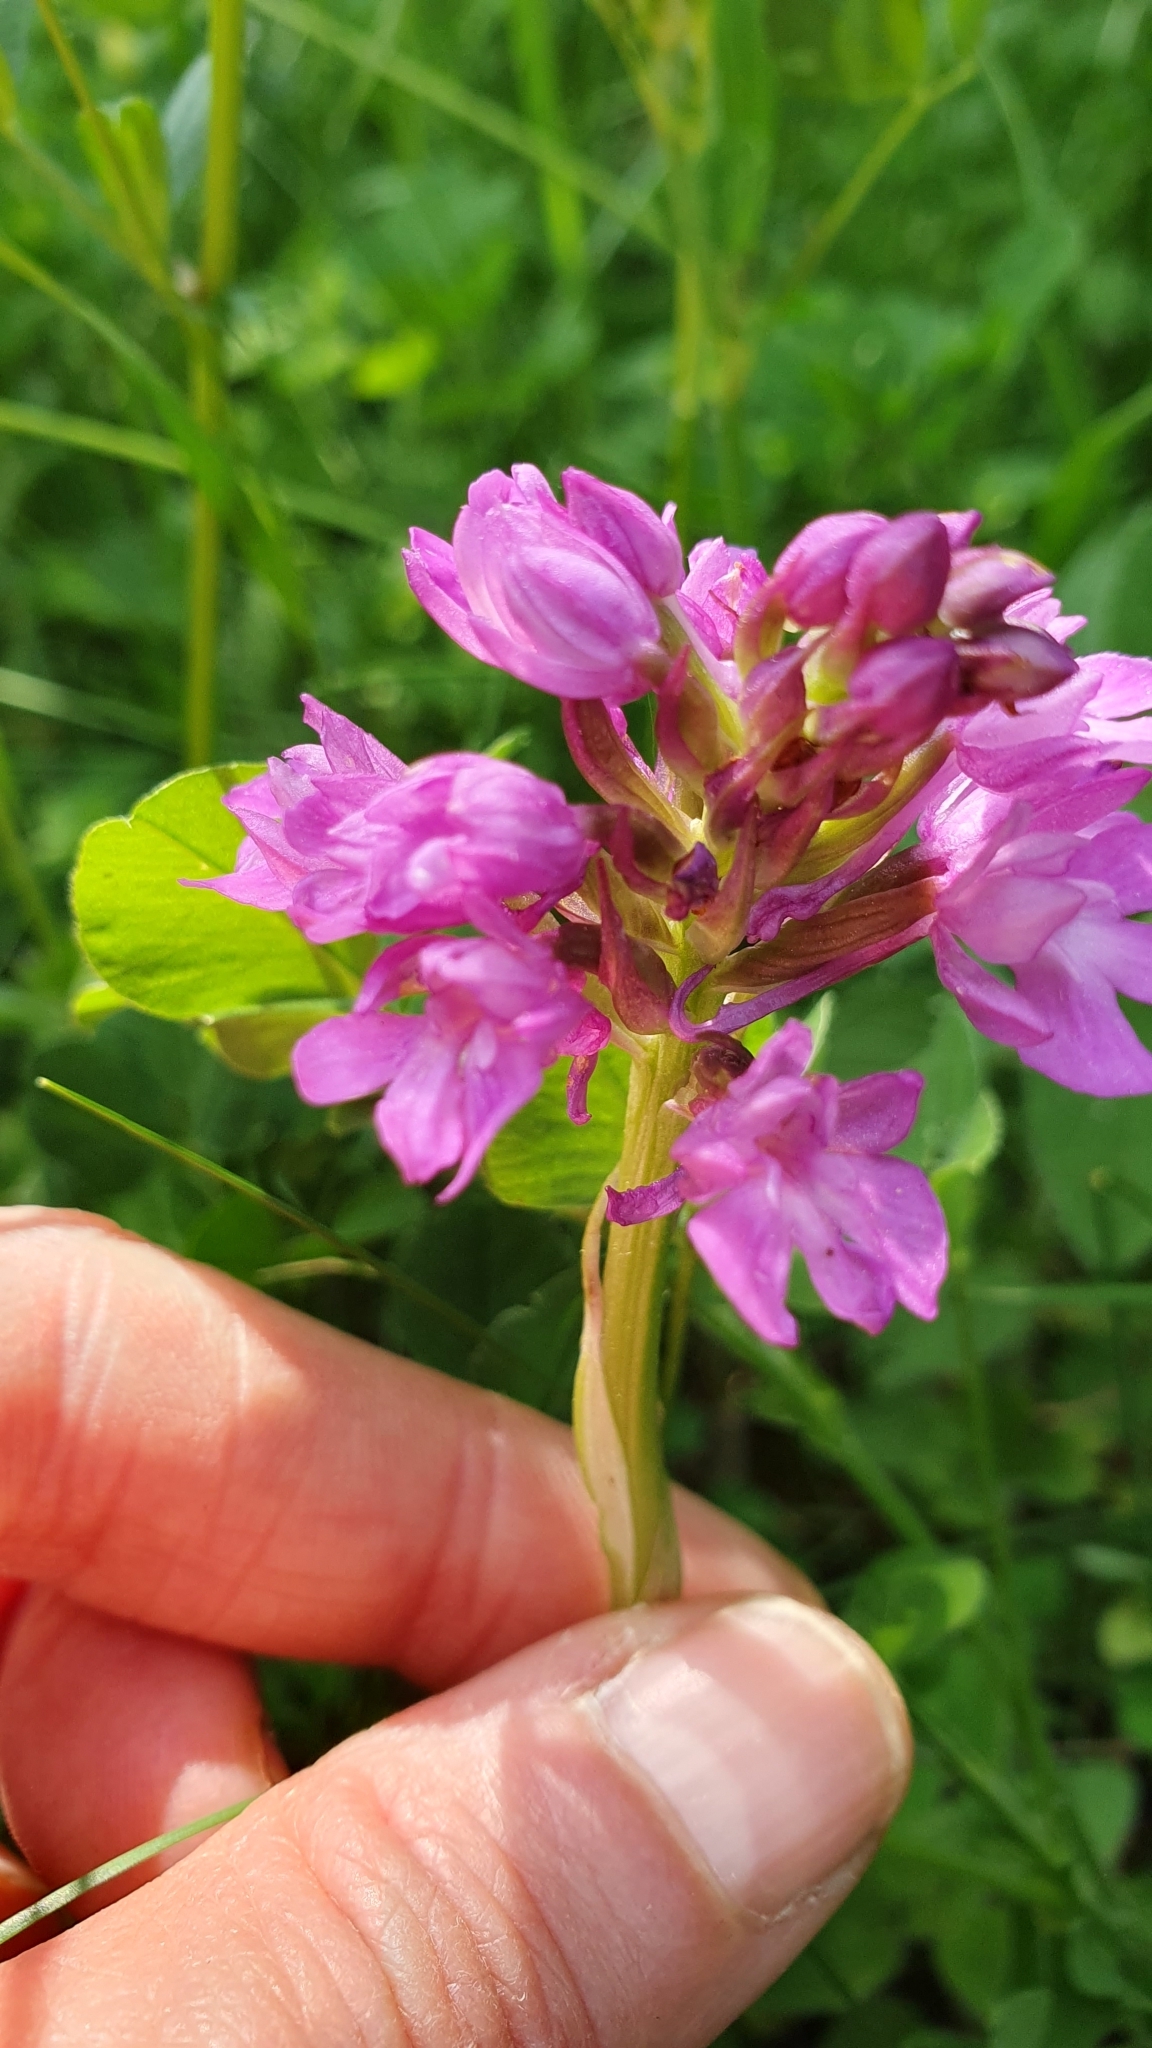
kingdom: Plantae
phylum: Tracheophyta
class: Liliopsida
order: Asparagales
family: Orchidaceae
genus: Anacamptis
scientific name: Anacamptis pyramidalis
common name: Pyramidal orchid
